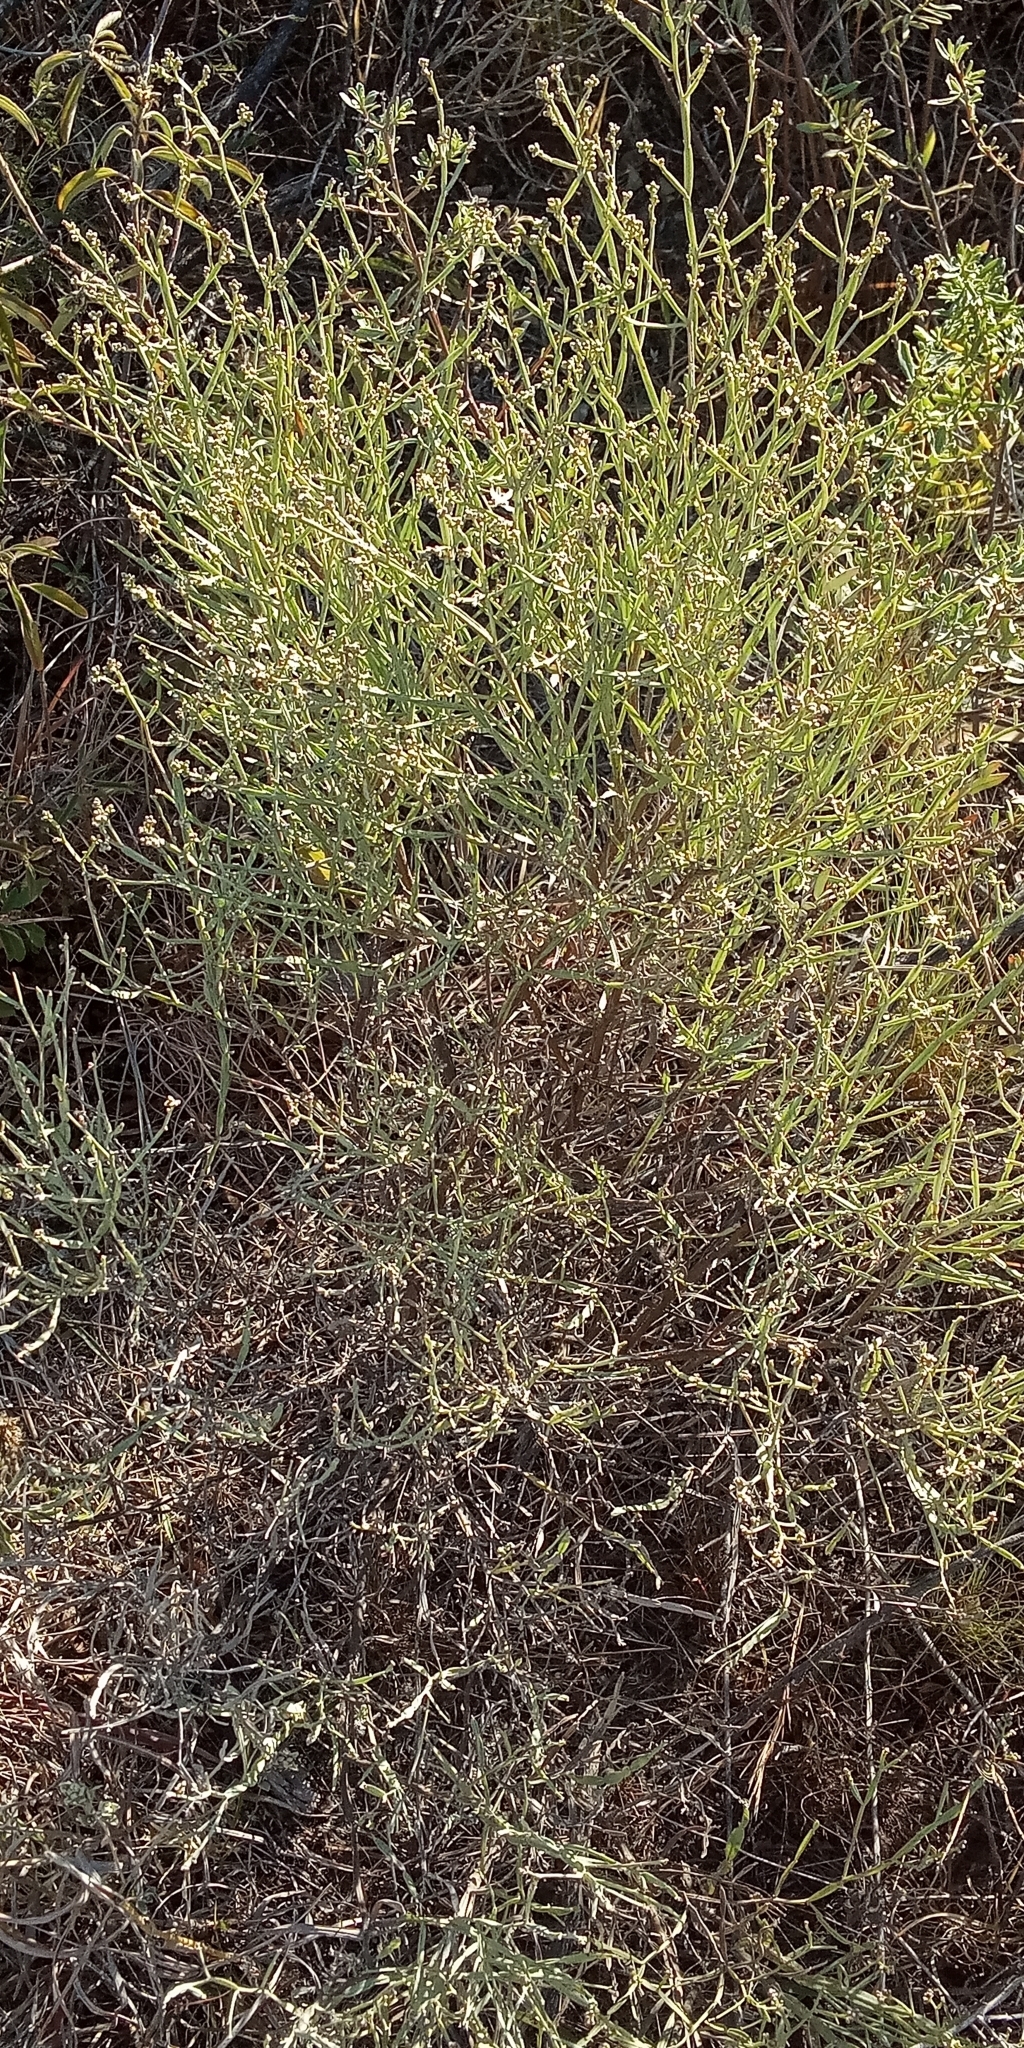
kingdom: Plantae
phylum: Tracheophyta
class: Magnoliopsida
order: Asterales
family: Asteraceae
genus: Baccharis
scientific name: Baccharis articulata
